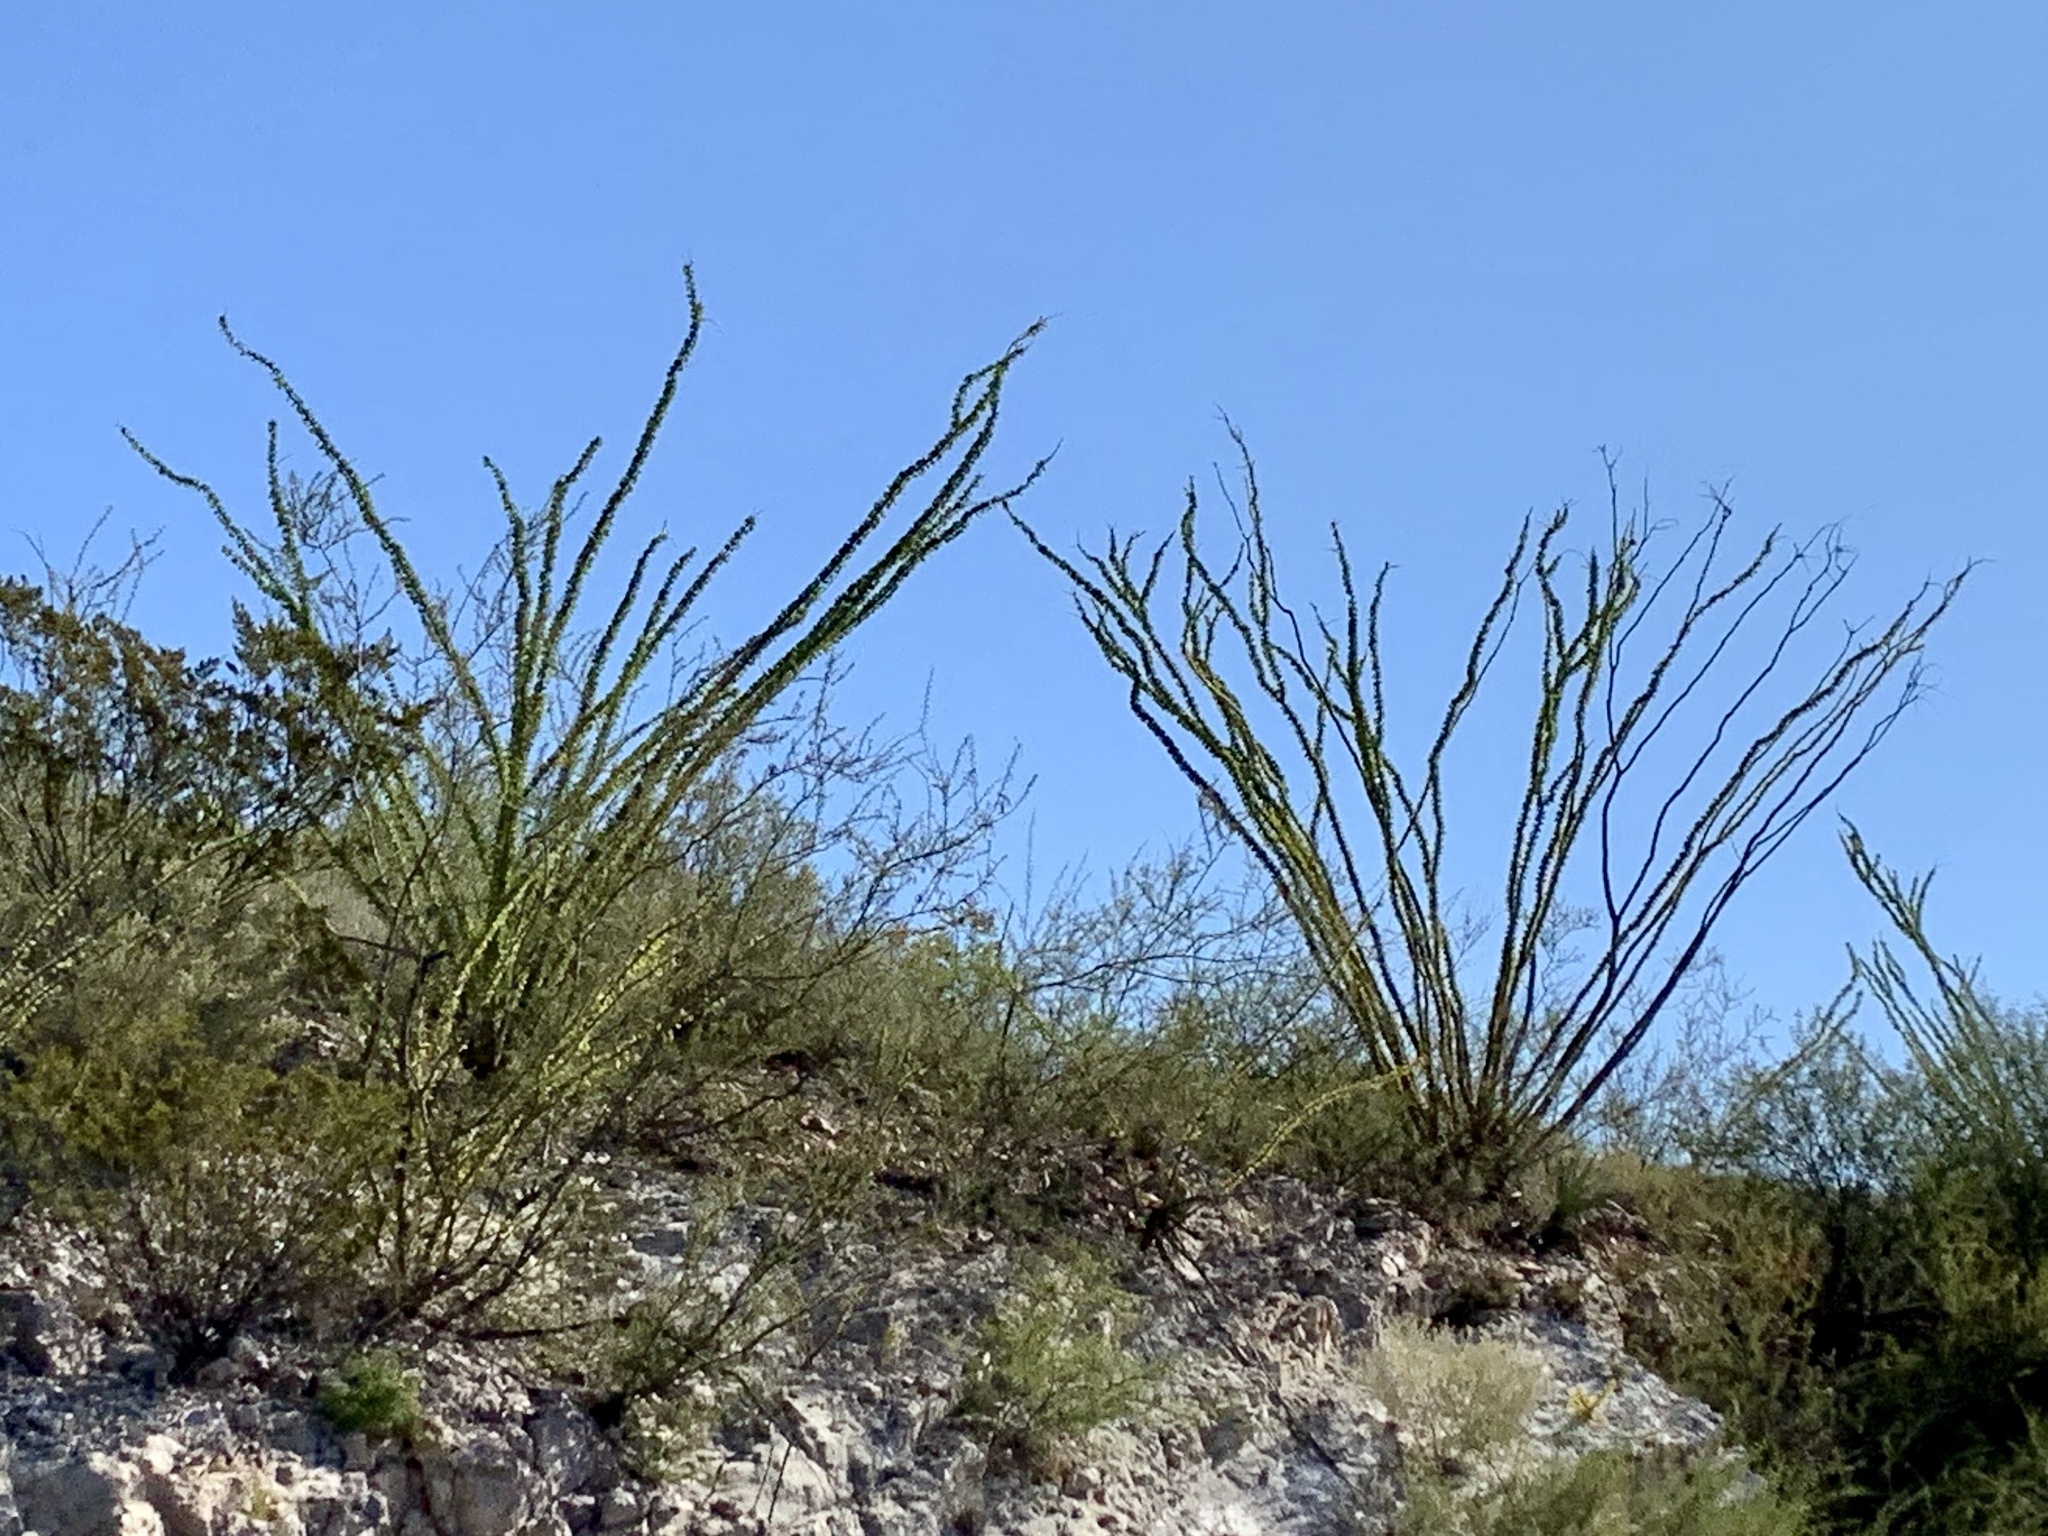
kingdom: Plantae
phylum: Tracheophyta
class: Magnoliopsida
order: Ericales
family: Fouquieriaceae
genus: Fouquieria
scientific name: Fouquieria splendens
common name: Vine-cactus
